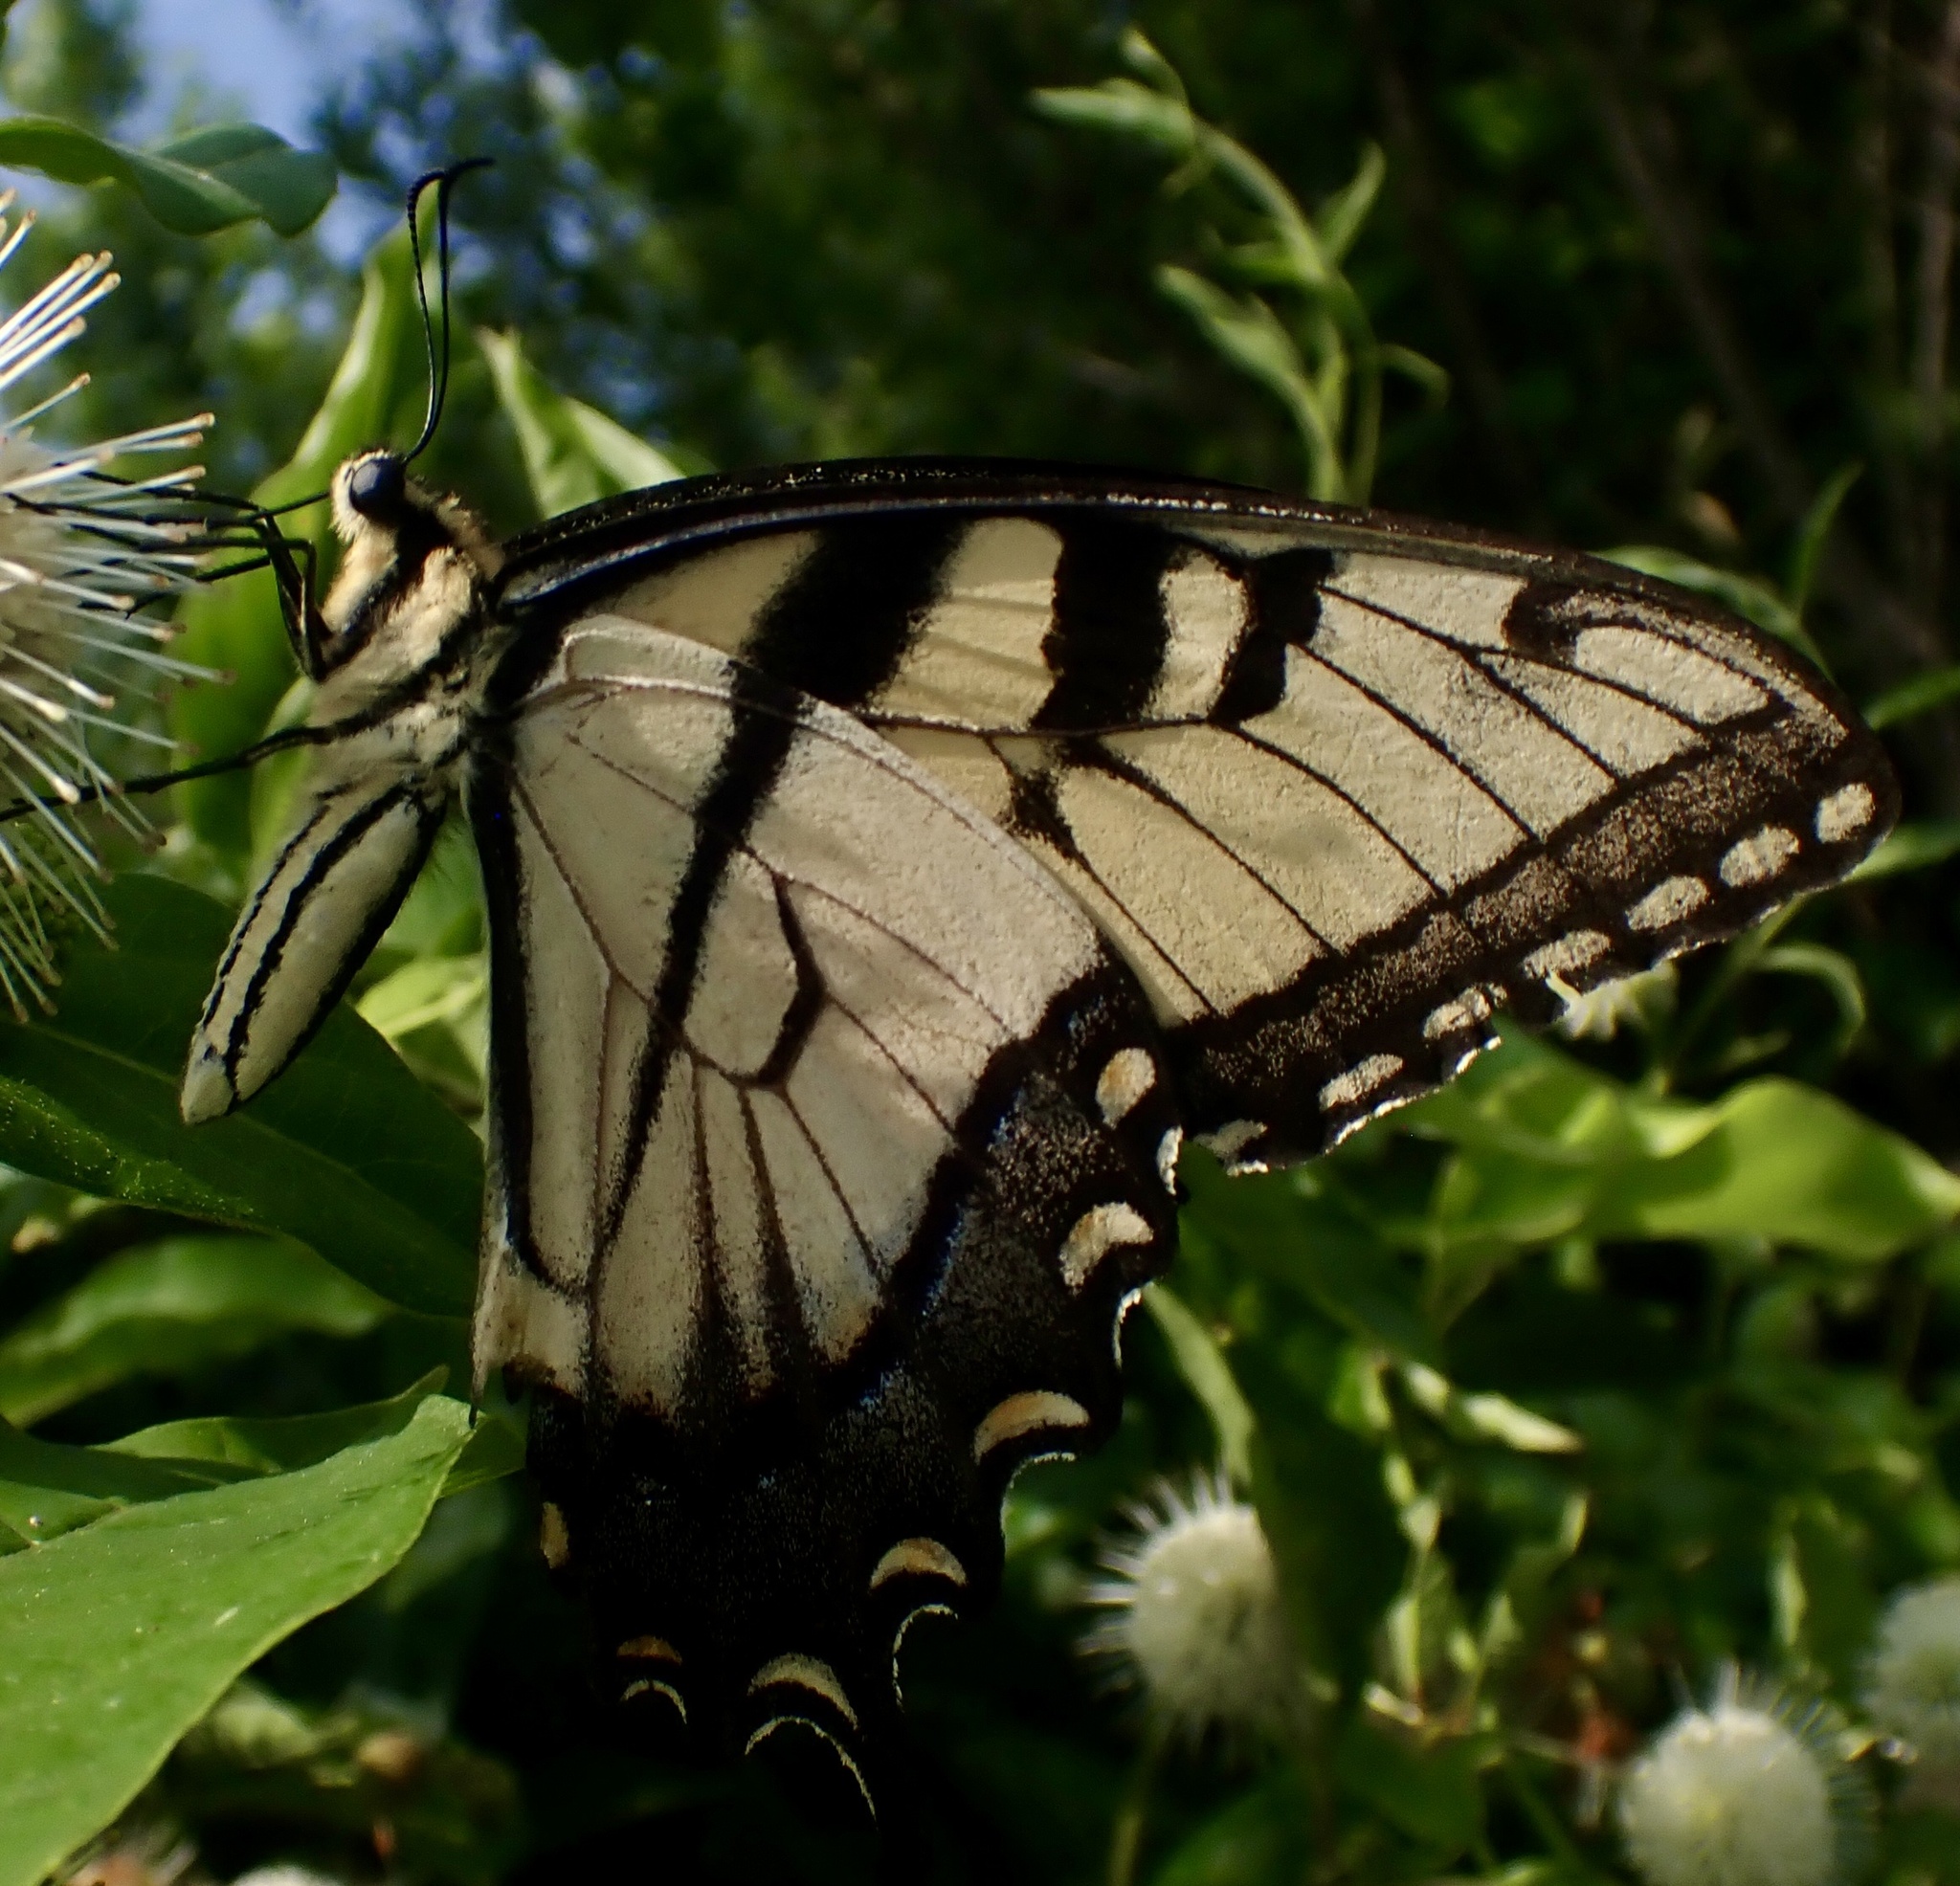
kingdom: Animalia
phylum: Arthropoda
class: Insecta
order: Lepidoptera
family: Papilionidae
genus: Papilio
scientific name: Papilio glaucus
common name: Tiger swallowtail
